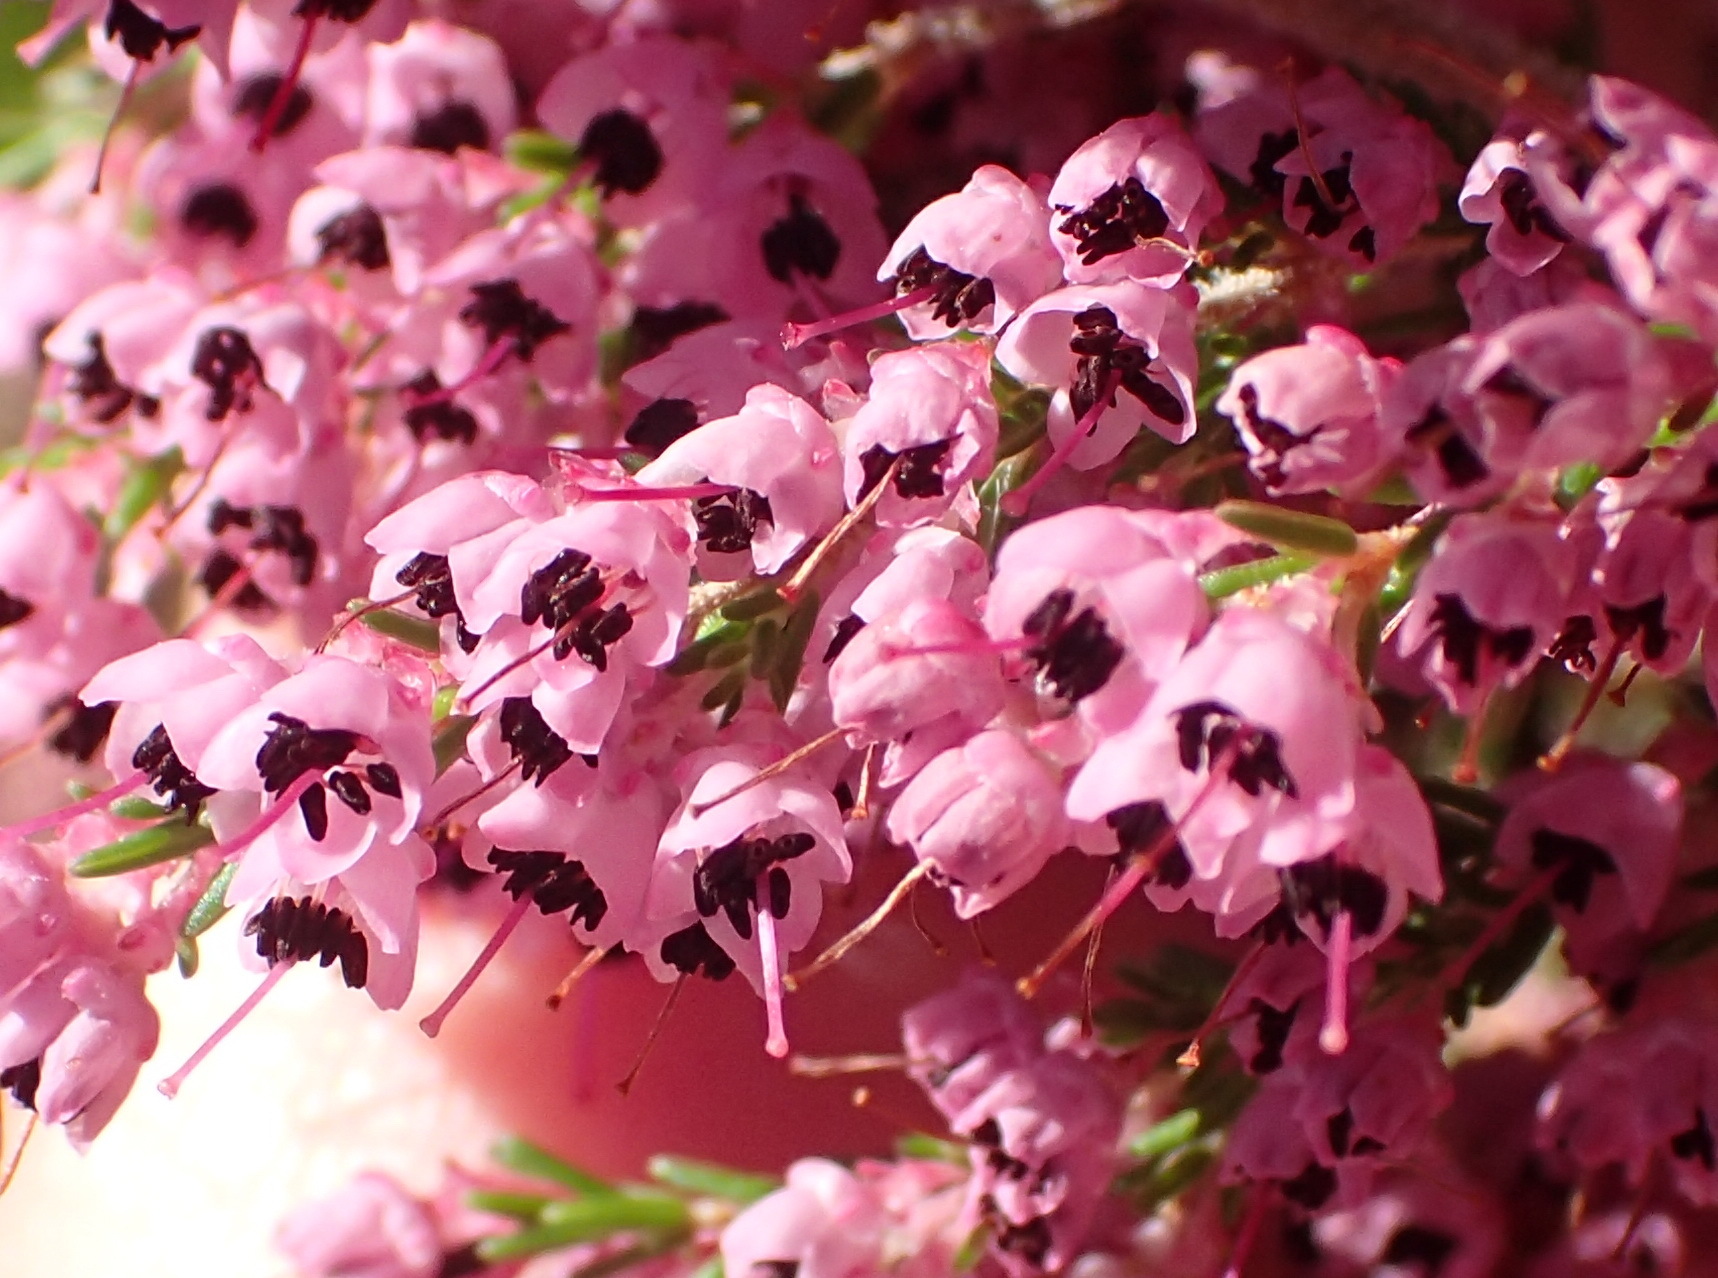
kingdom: Plantae
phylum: Tracheophyta
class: Magnoliopsida
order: Ericales
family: Ericaceae
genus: Erica
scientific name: Erica sparsa
